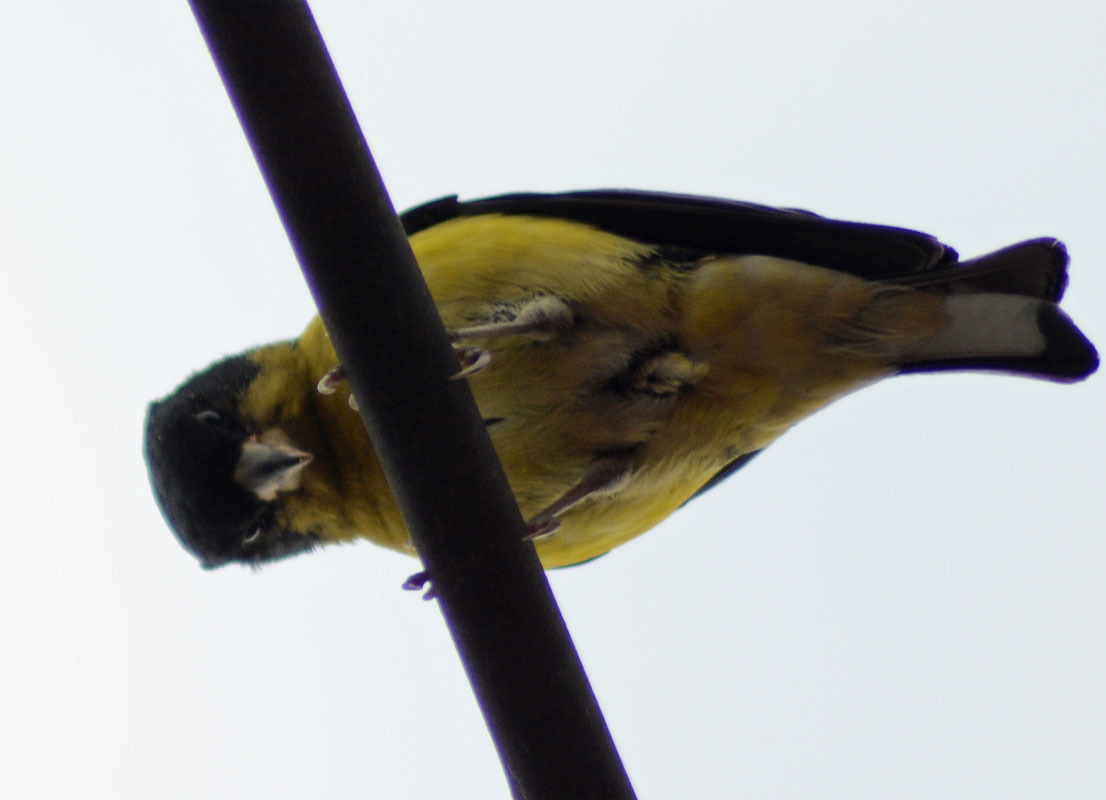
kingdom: Animalia
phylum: Chordata
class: Aves
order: Passeriformes
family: Fringillidae
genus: Spinus
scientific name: Spinus psaltria
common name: Lesser goldfinch
